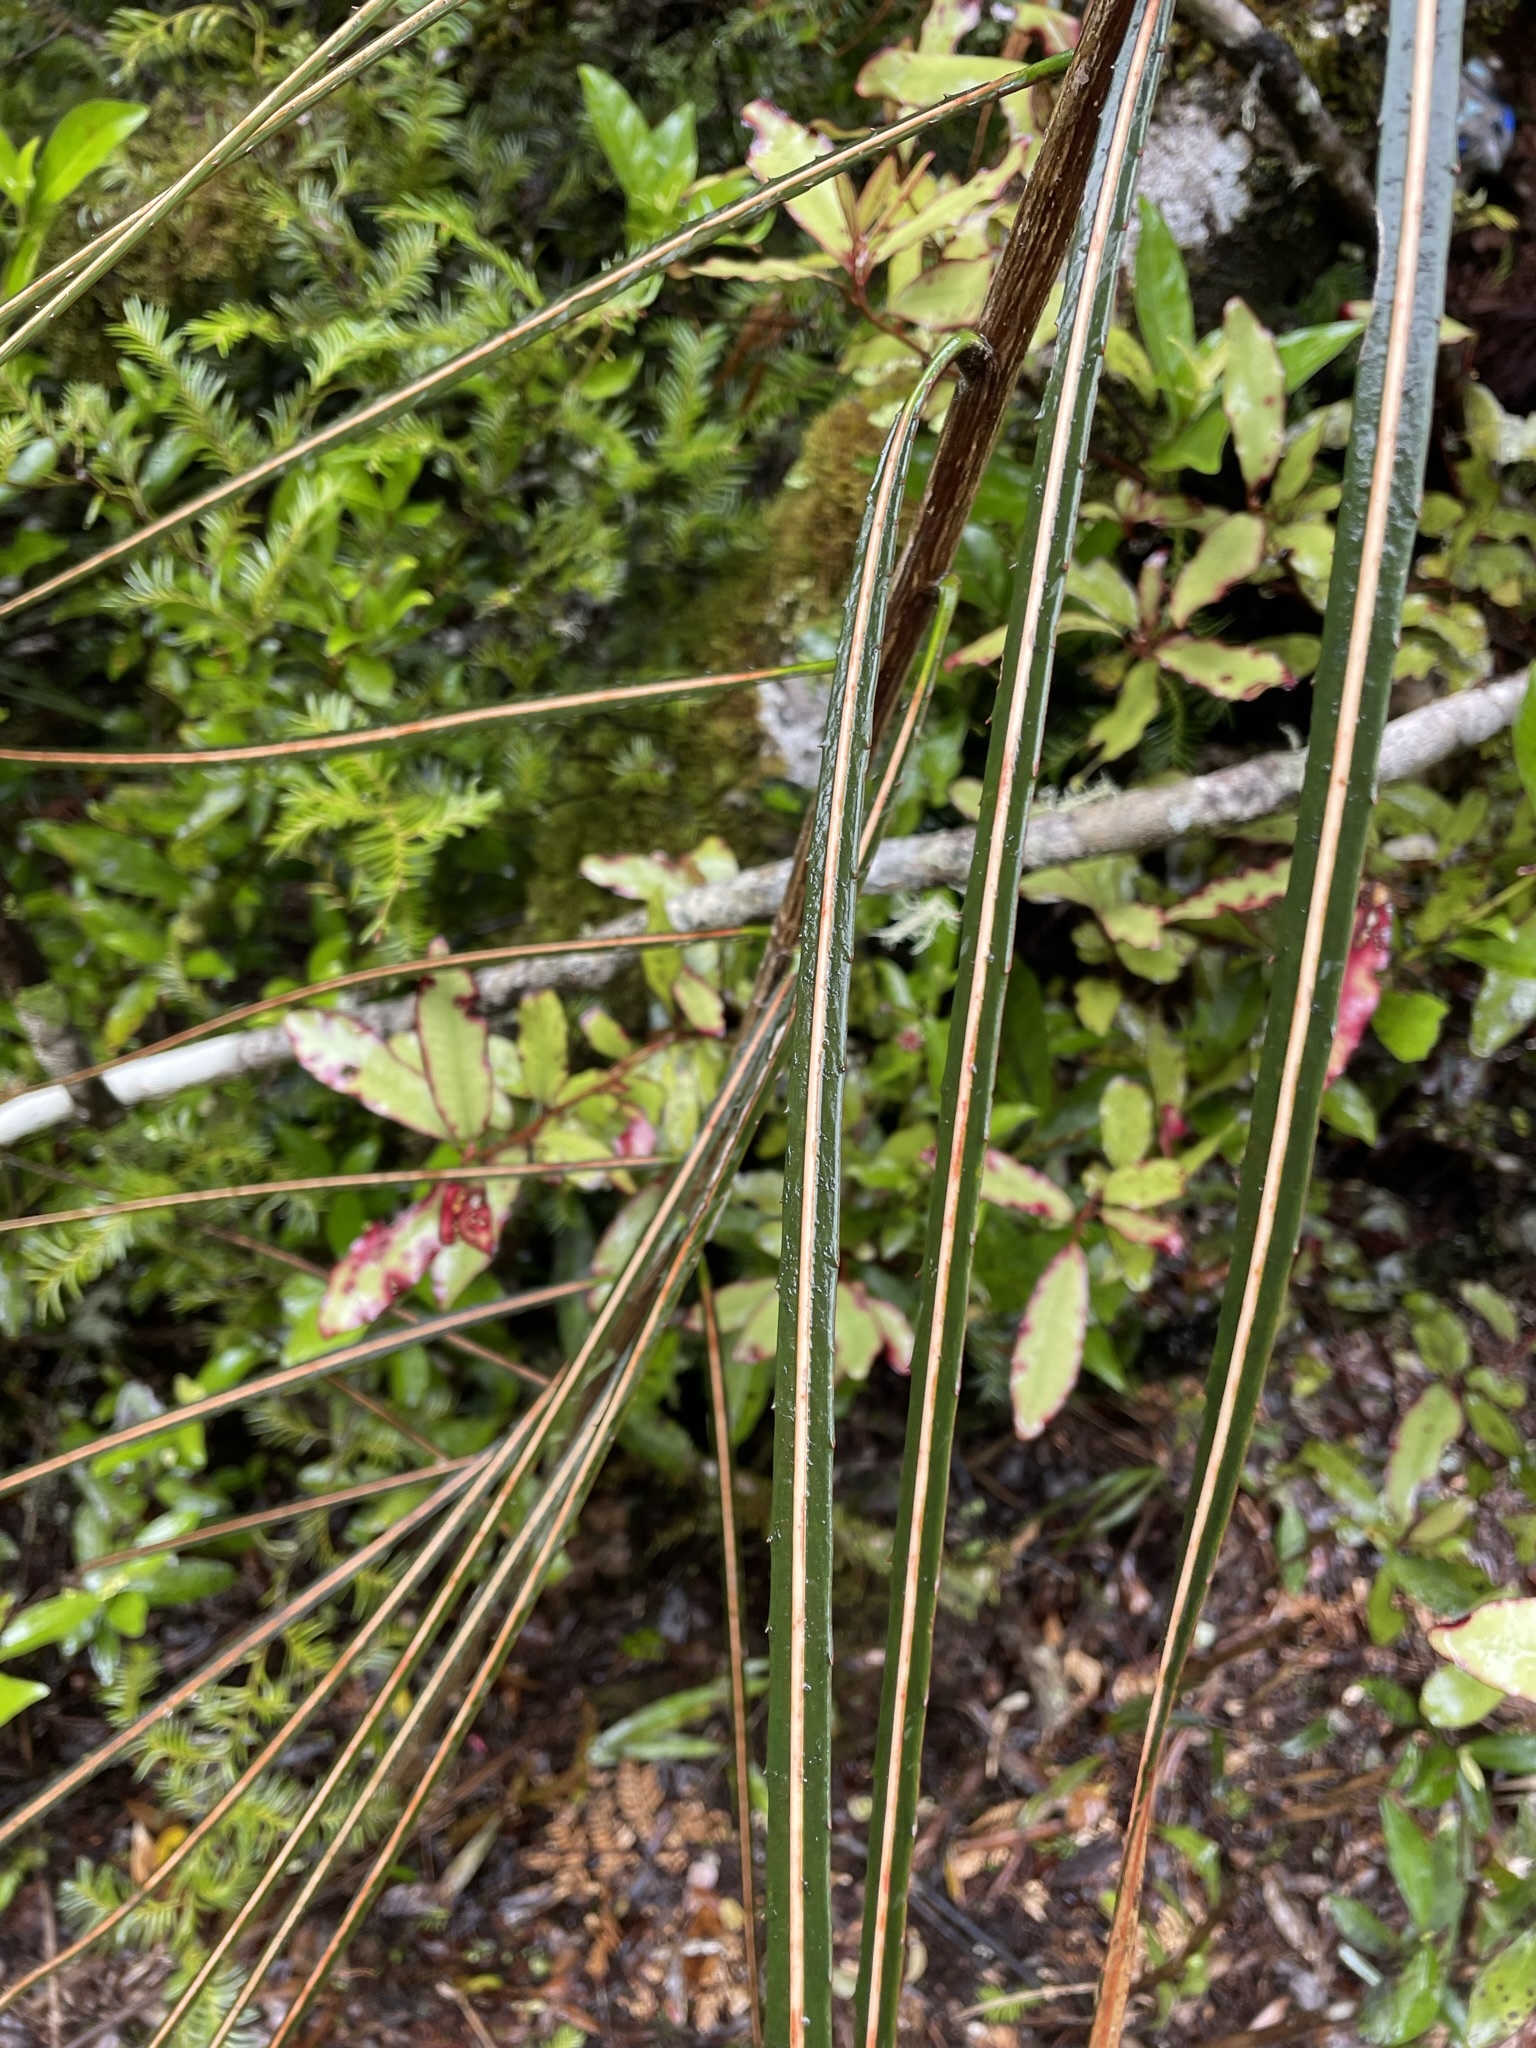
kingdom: Plantae
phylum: Tracheophyta
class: Magnoliopsida
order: Apiales
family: Araliaceae
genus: Pseudopanax
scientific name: Pseudopanax crassifolius
